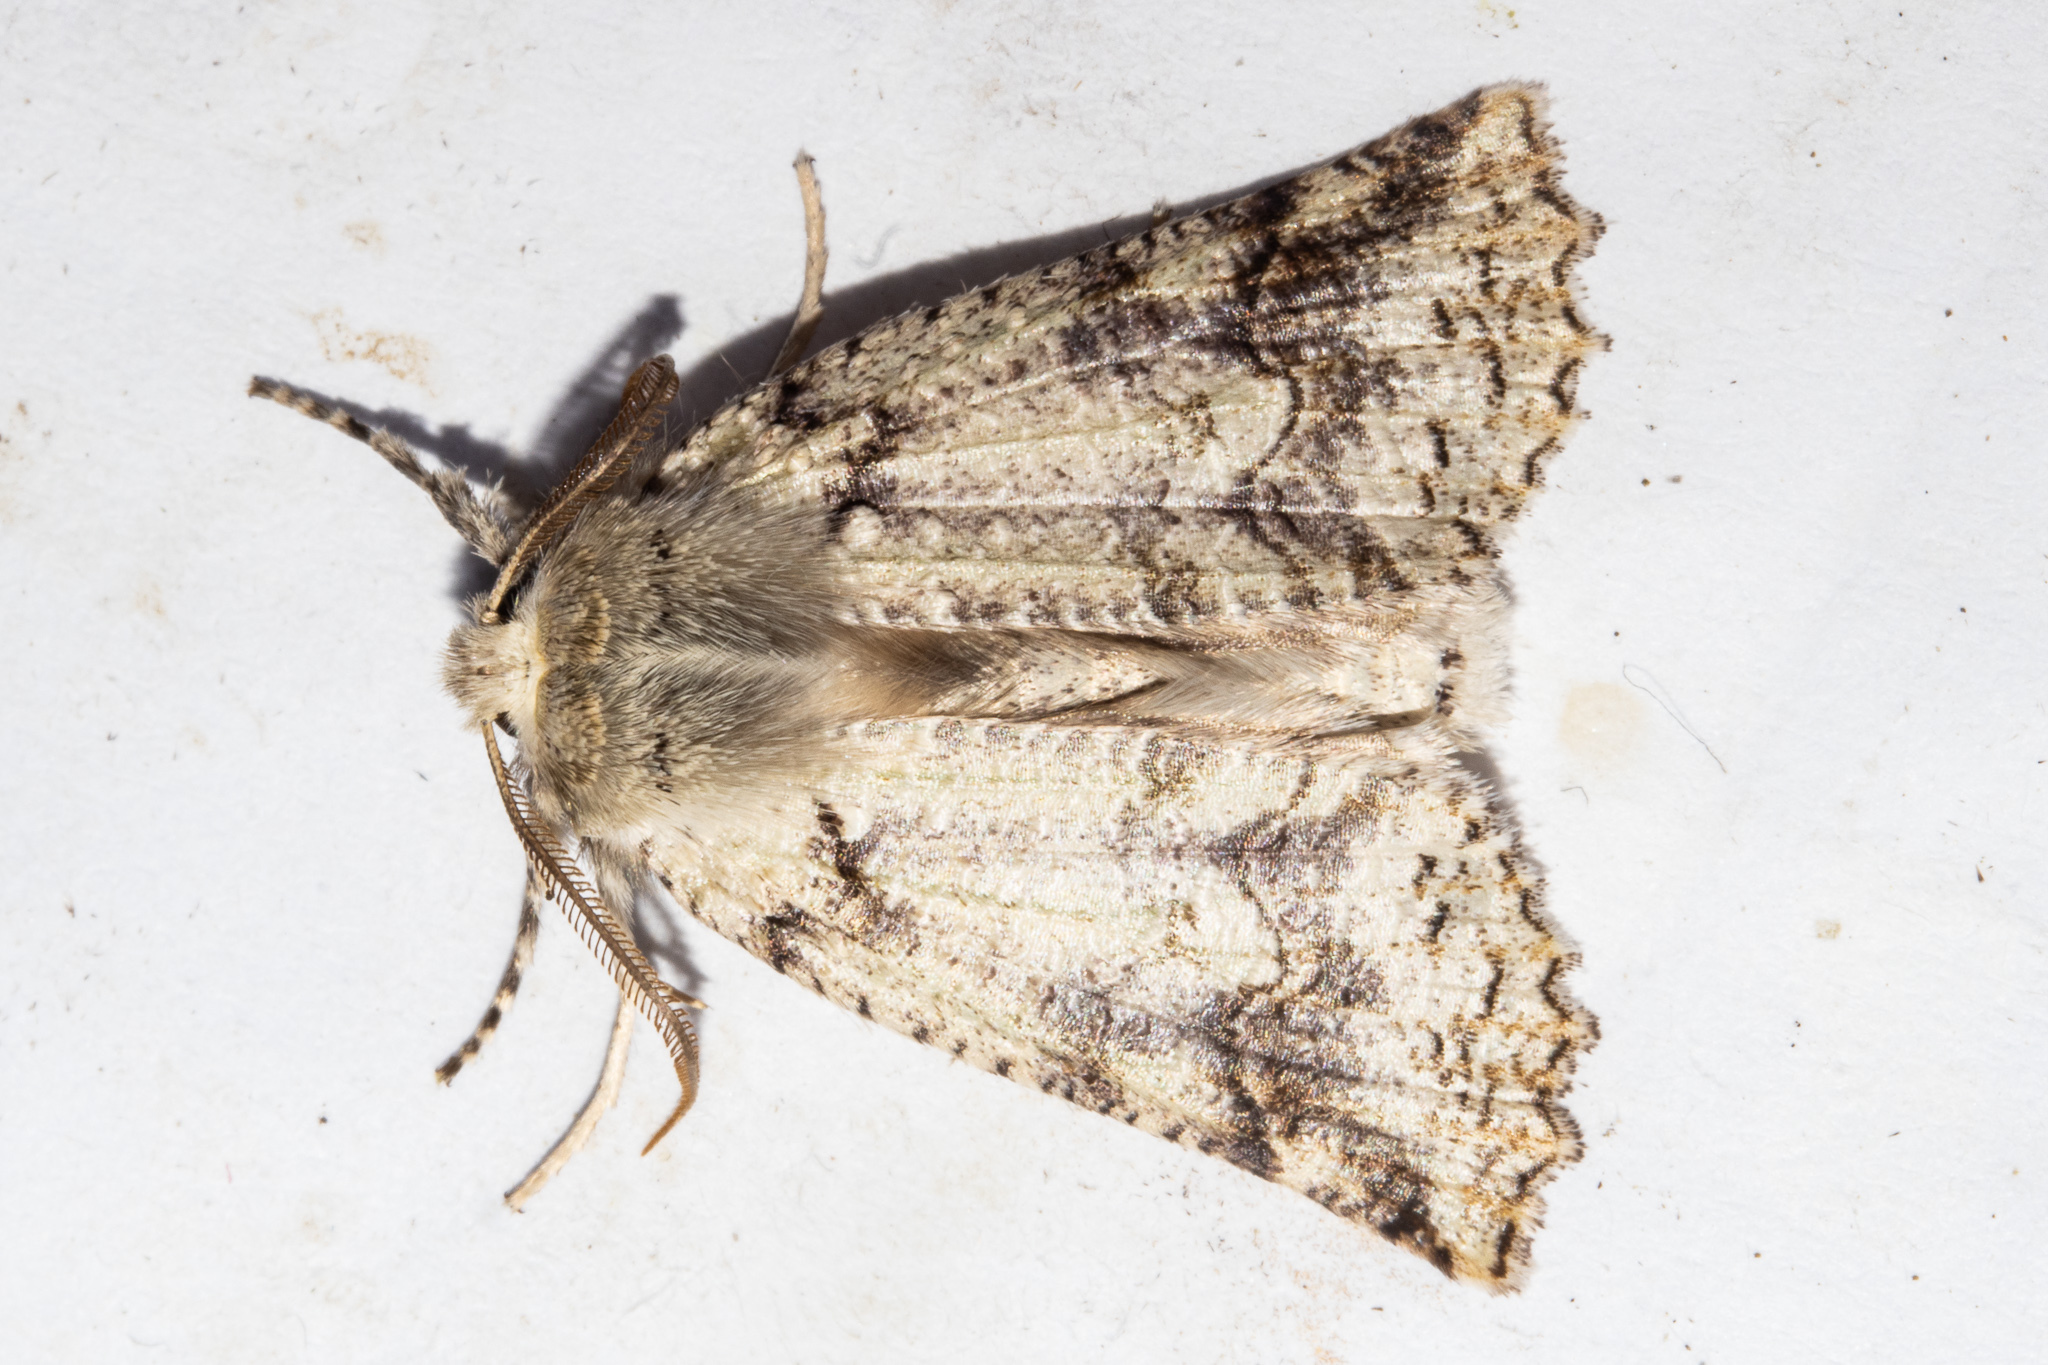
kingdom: Animalia
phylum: Arthropoda
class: Insecta
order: Lepidoptera
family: Geometridae
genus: Declana
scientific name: Declana floccosa
